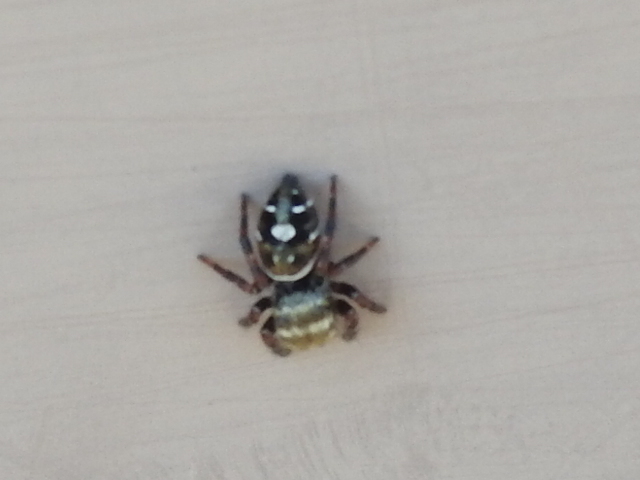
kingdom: Animalia
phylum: Arthropoda
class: Arachnida
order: Araneae
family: Salticidae
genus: Phidippus
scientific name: Phidippus audax
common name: Bold jumper
